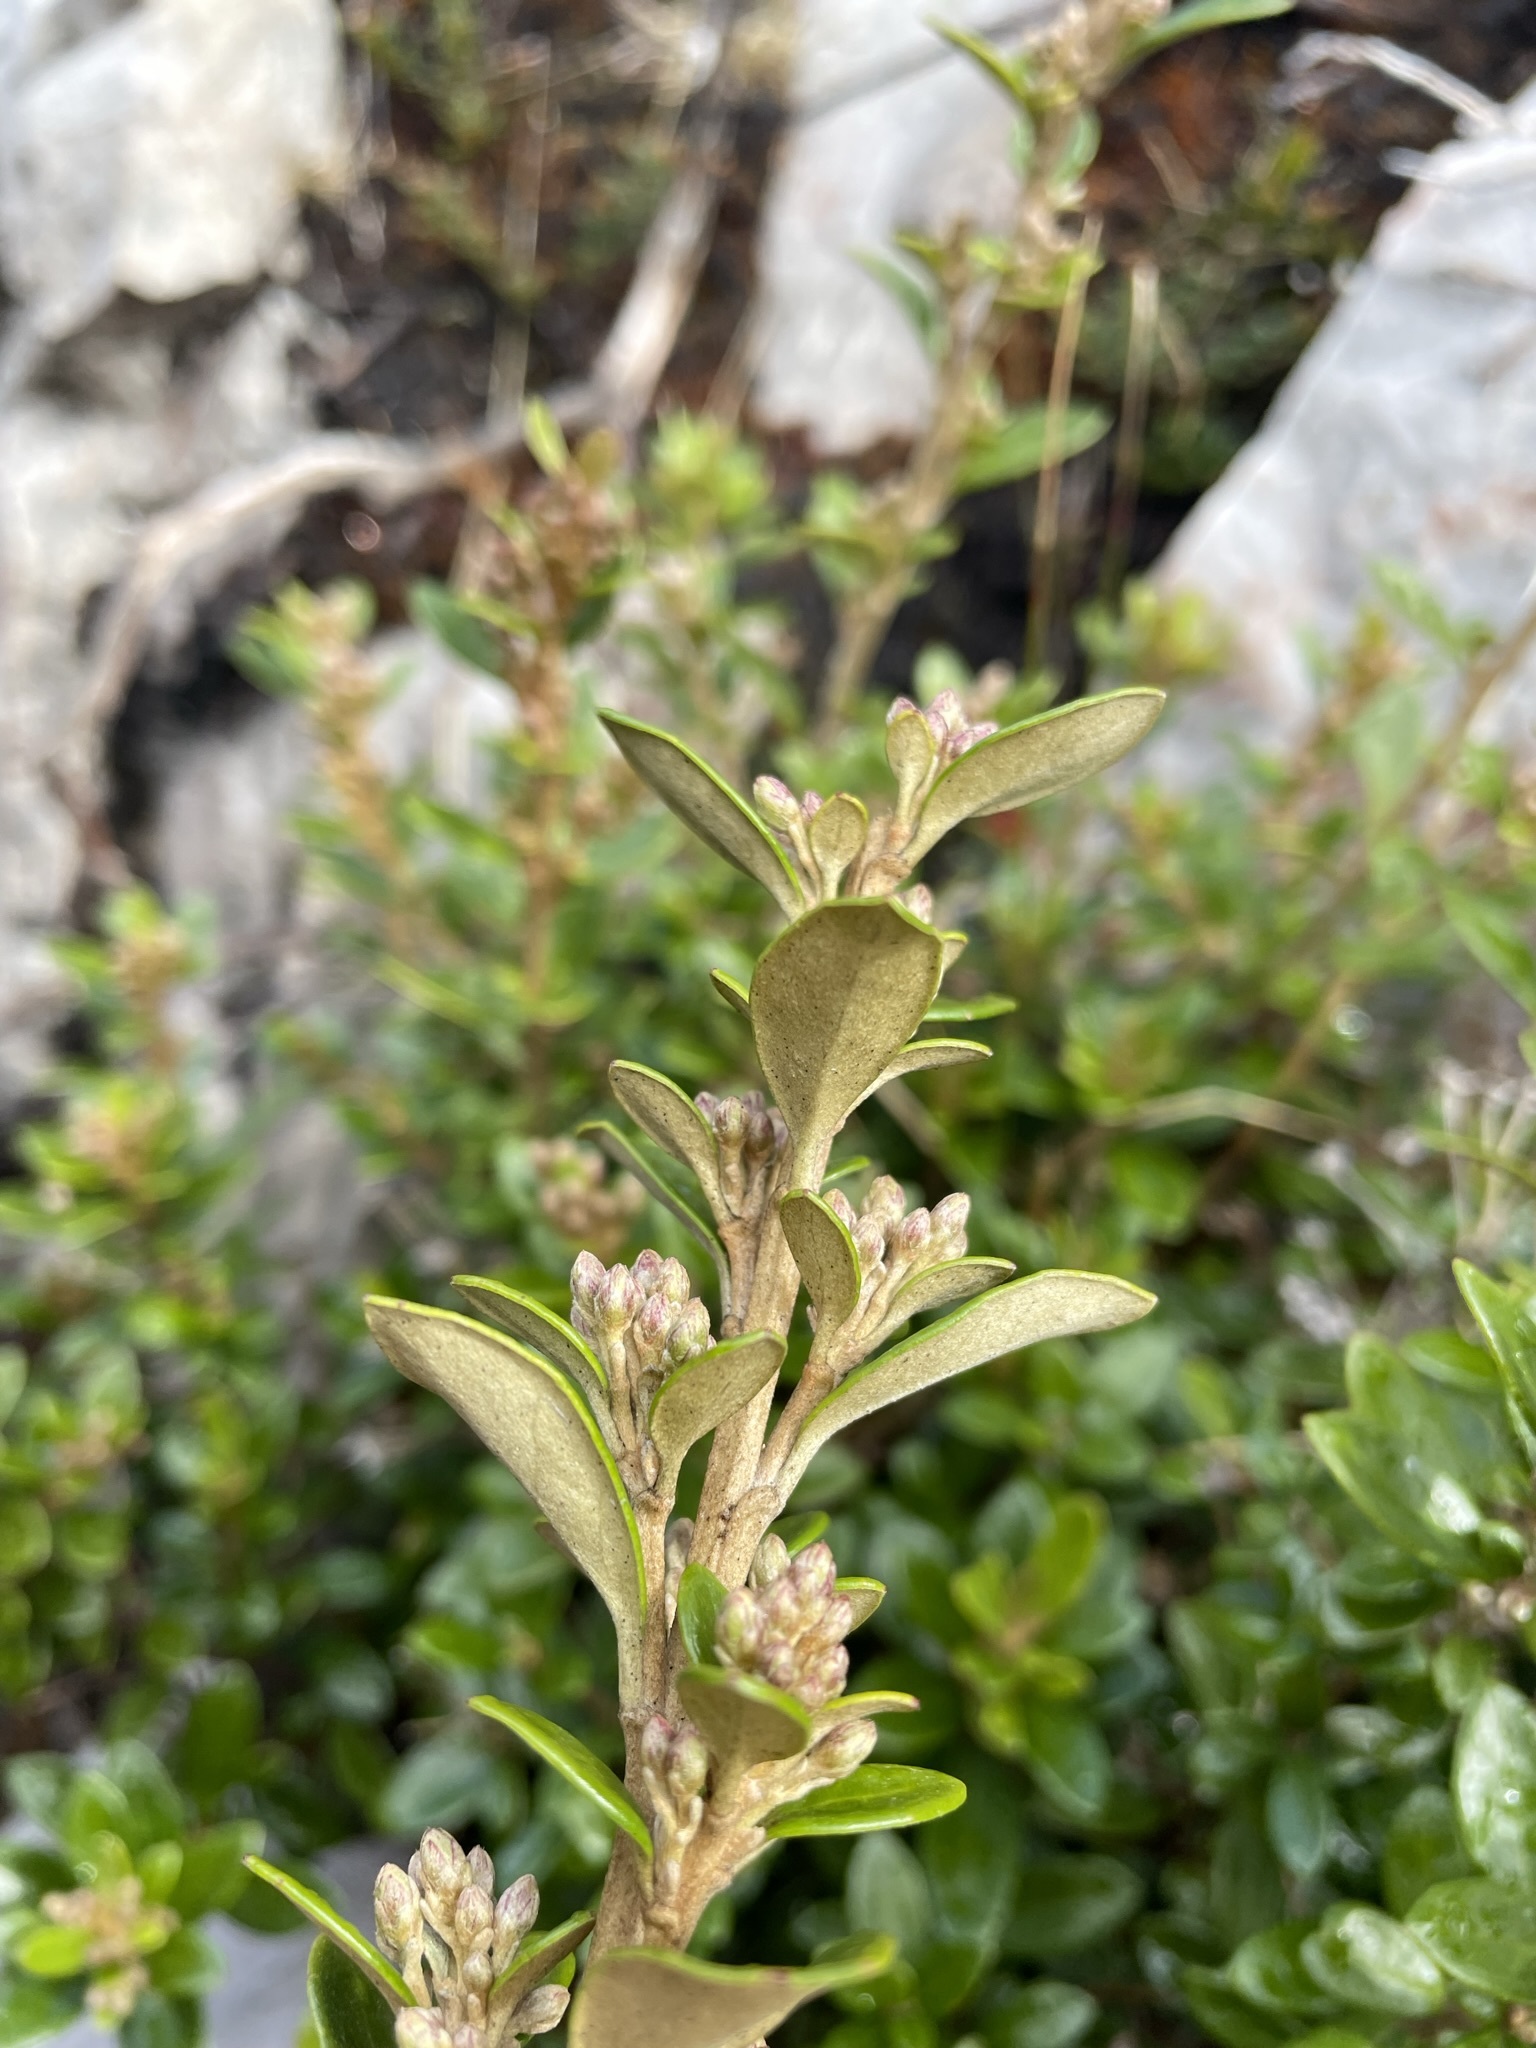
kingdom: Plantae
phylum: Tracheophyta
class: Magnoliopsida
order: Asterales
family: Asteraceae
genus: Olearia
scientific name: Olearia persoonioides
